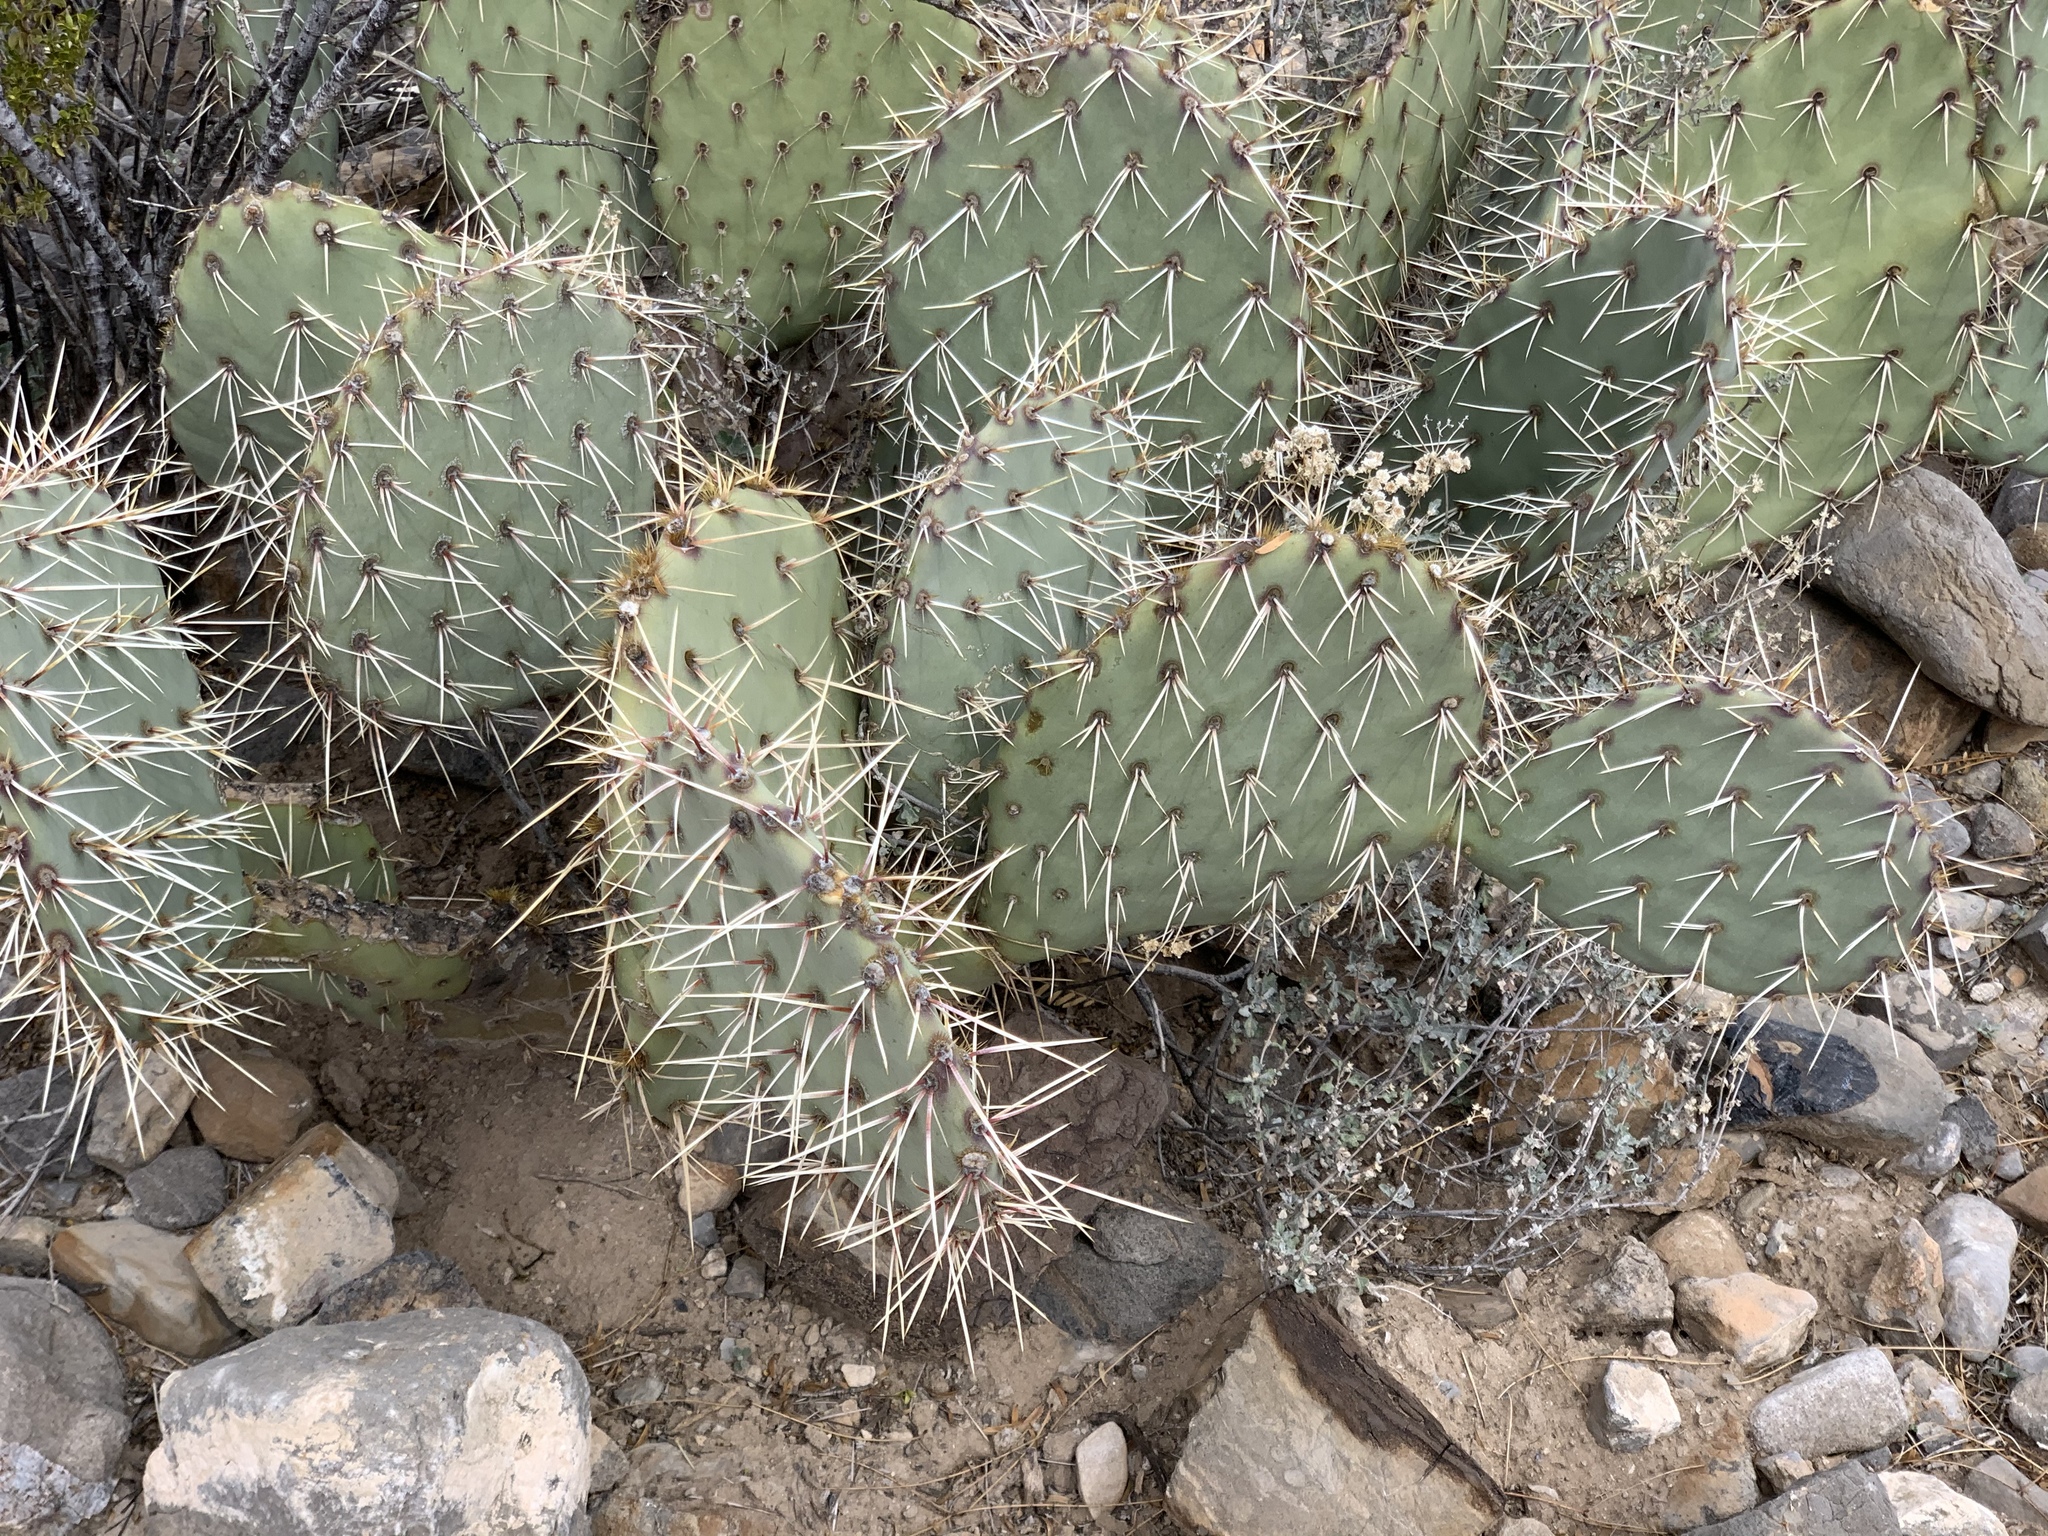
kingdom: Plantae
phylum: Tracheophyta
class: Magnoliopsida
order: Caryophyllales
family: Cactaceae
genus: Opuntia
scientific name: Opuntia phaeacantha
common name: New mexico prickly-pear
